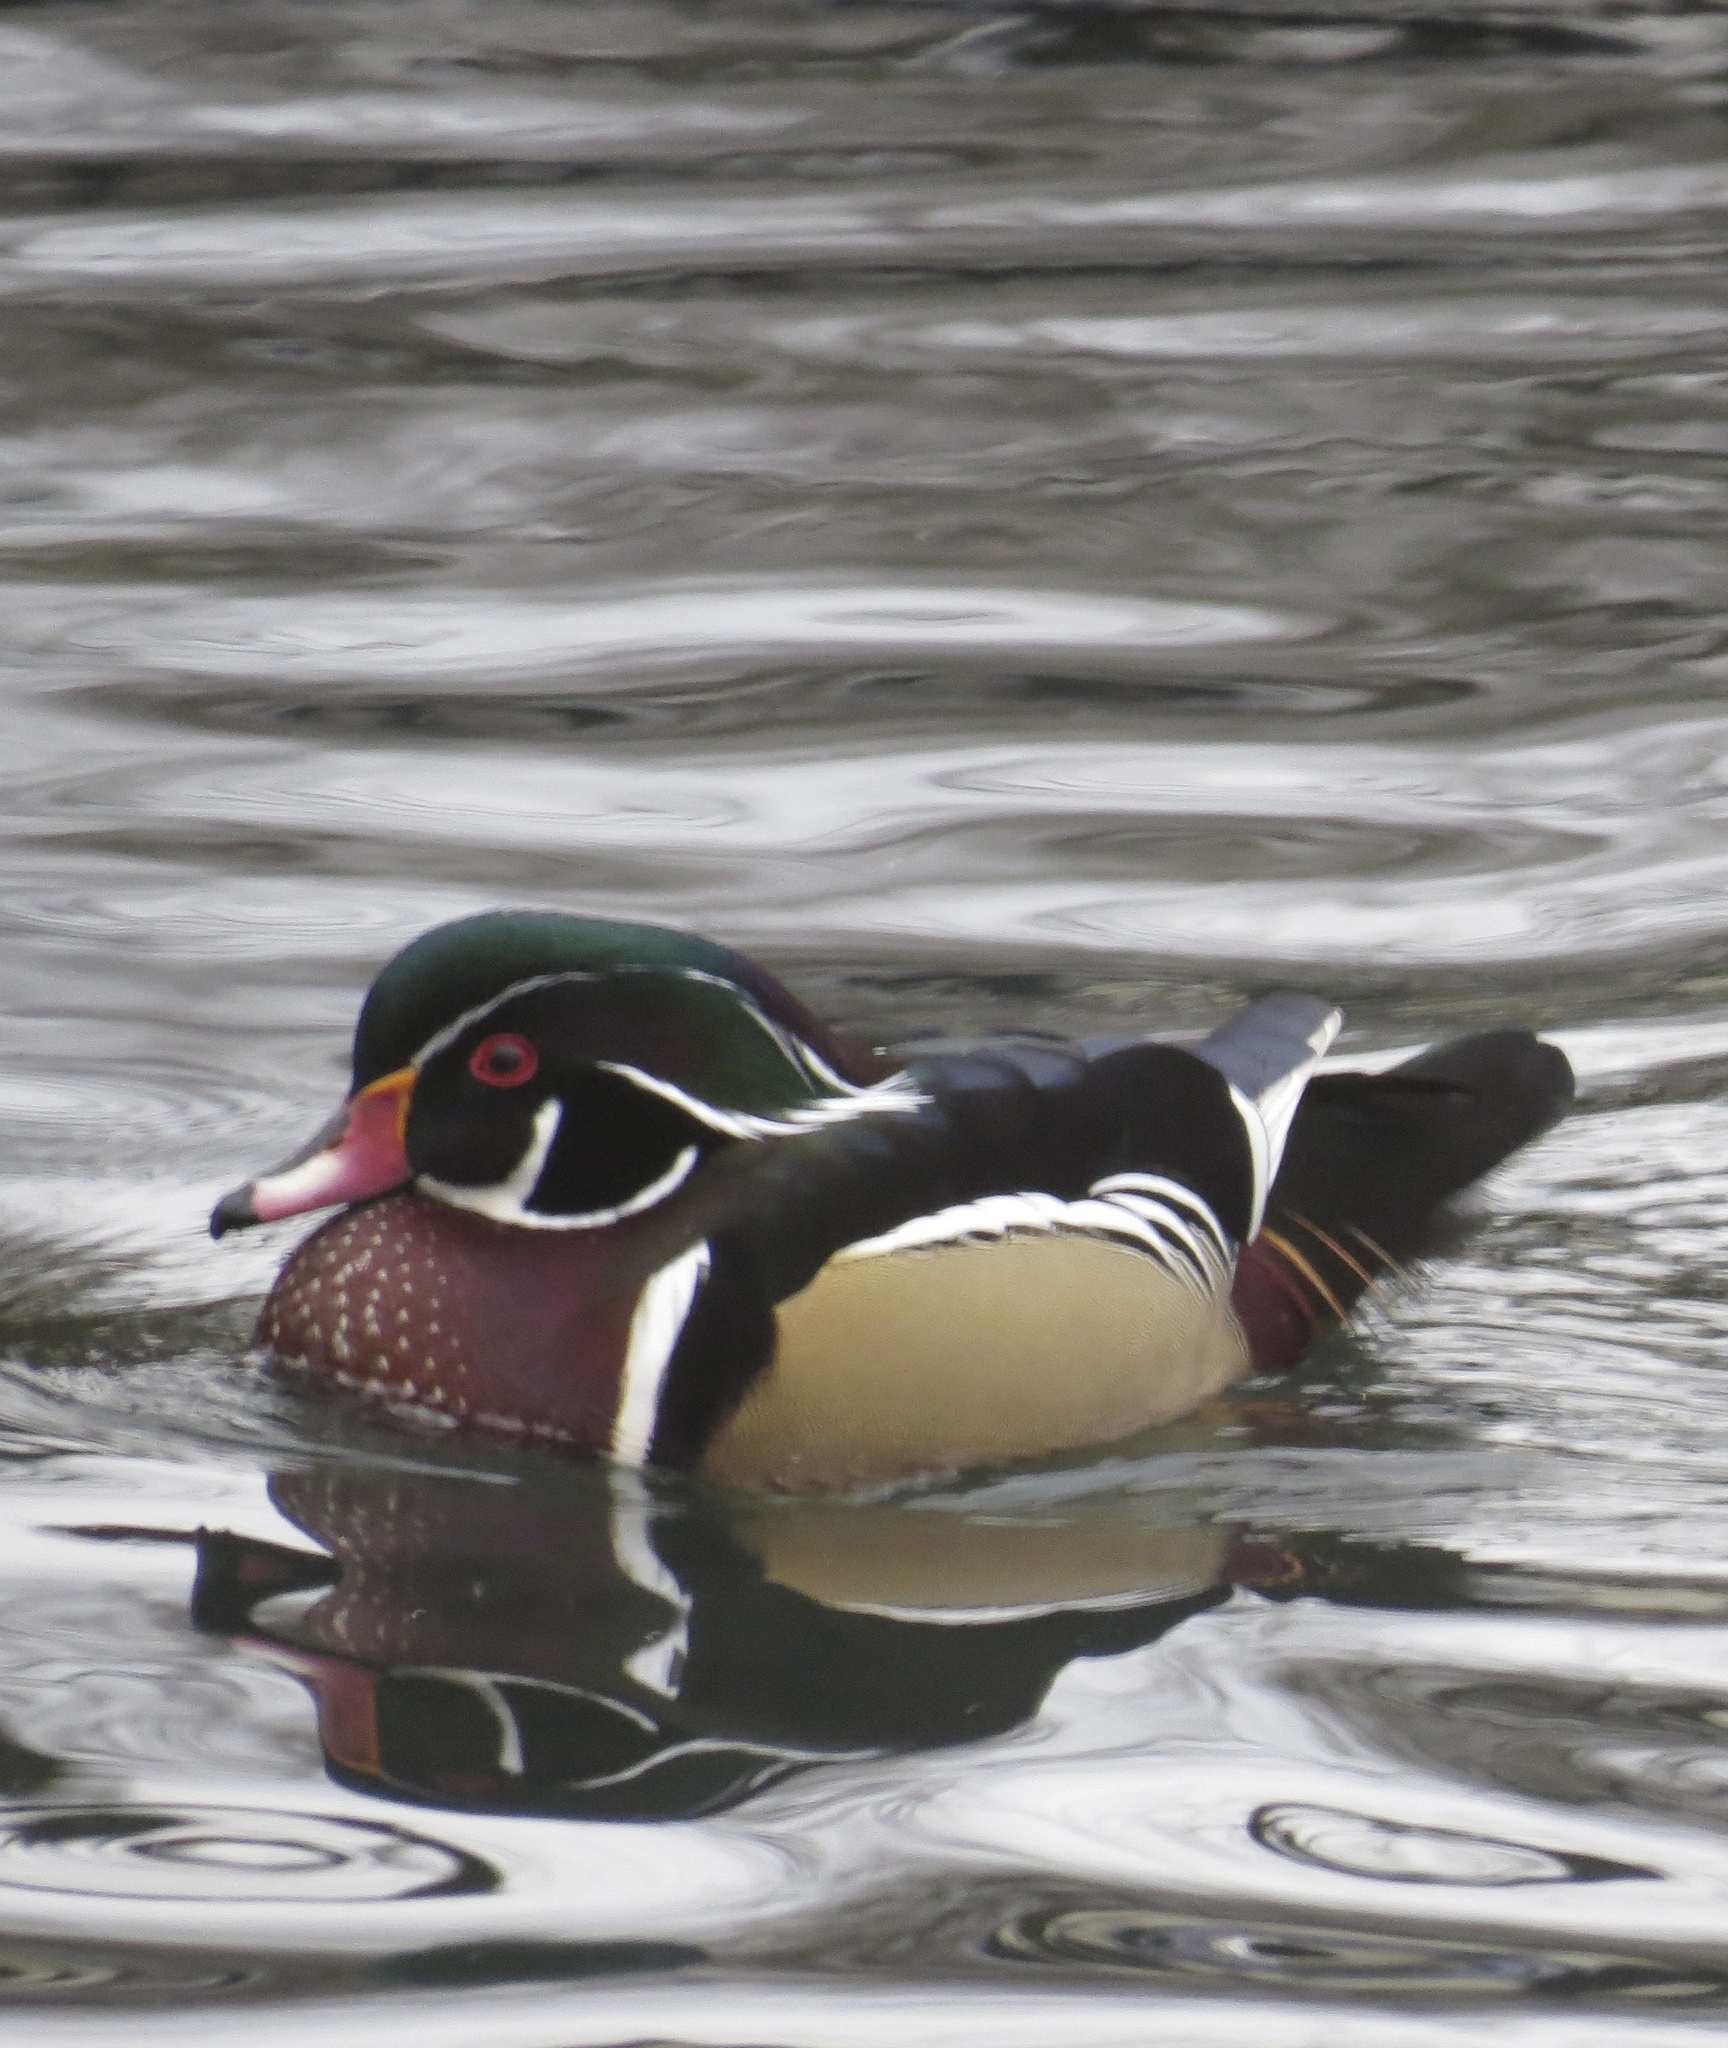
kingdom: Animalia
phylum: Chordata
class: Aves
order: Anseriformes
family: Anatidae
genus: Aix
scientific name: Aix sponsa
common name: Wood duck
